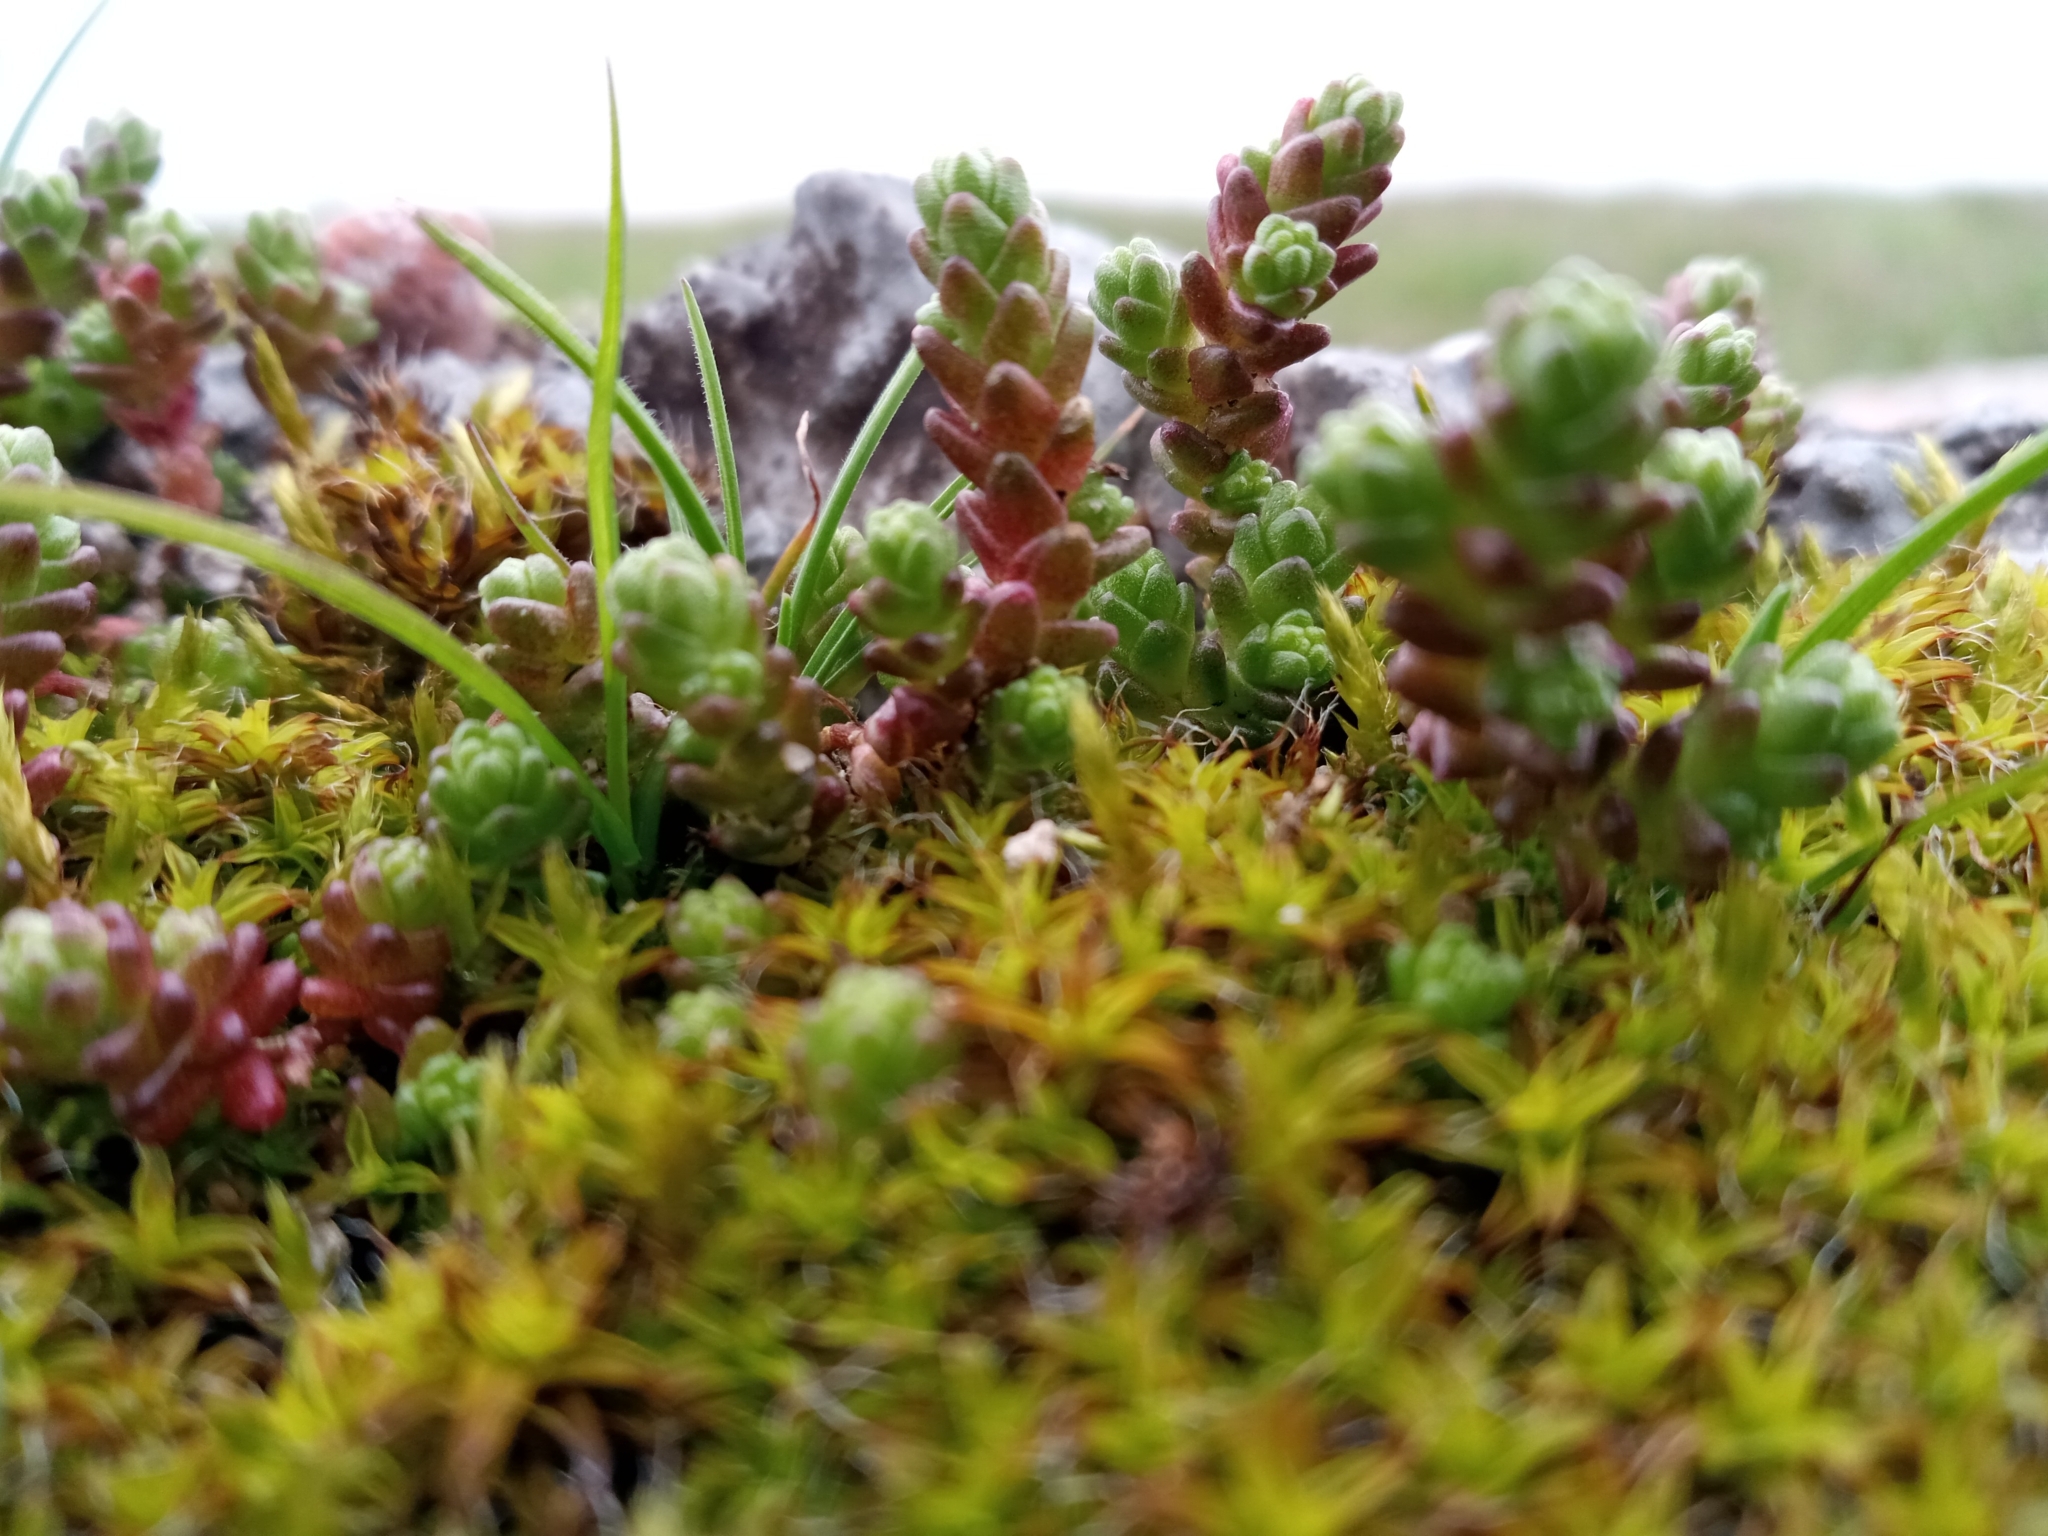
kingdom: Plantae
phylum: Tracheophyta
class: Magnoliopsida
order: Saxifragales
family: Crassulaceae
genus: Sedum
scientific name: Sedum acre
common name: Biting stonecrop
